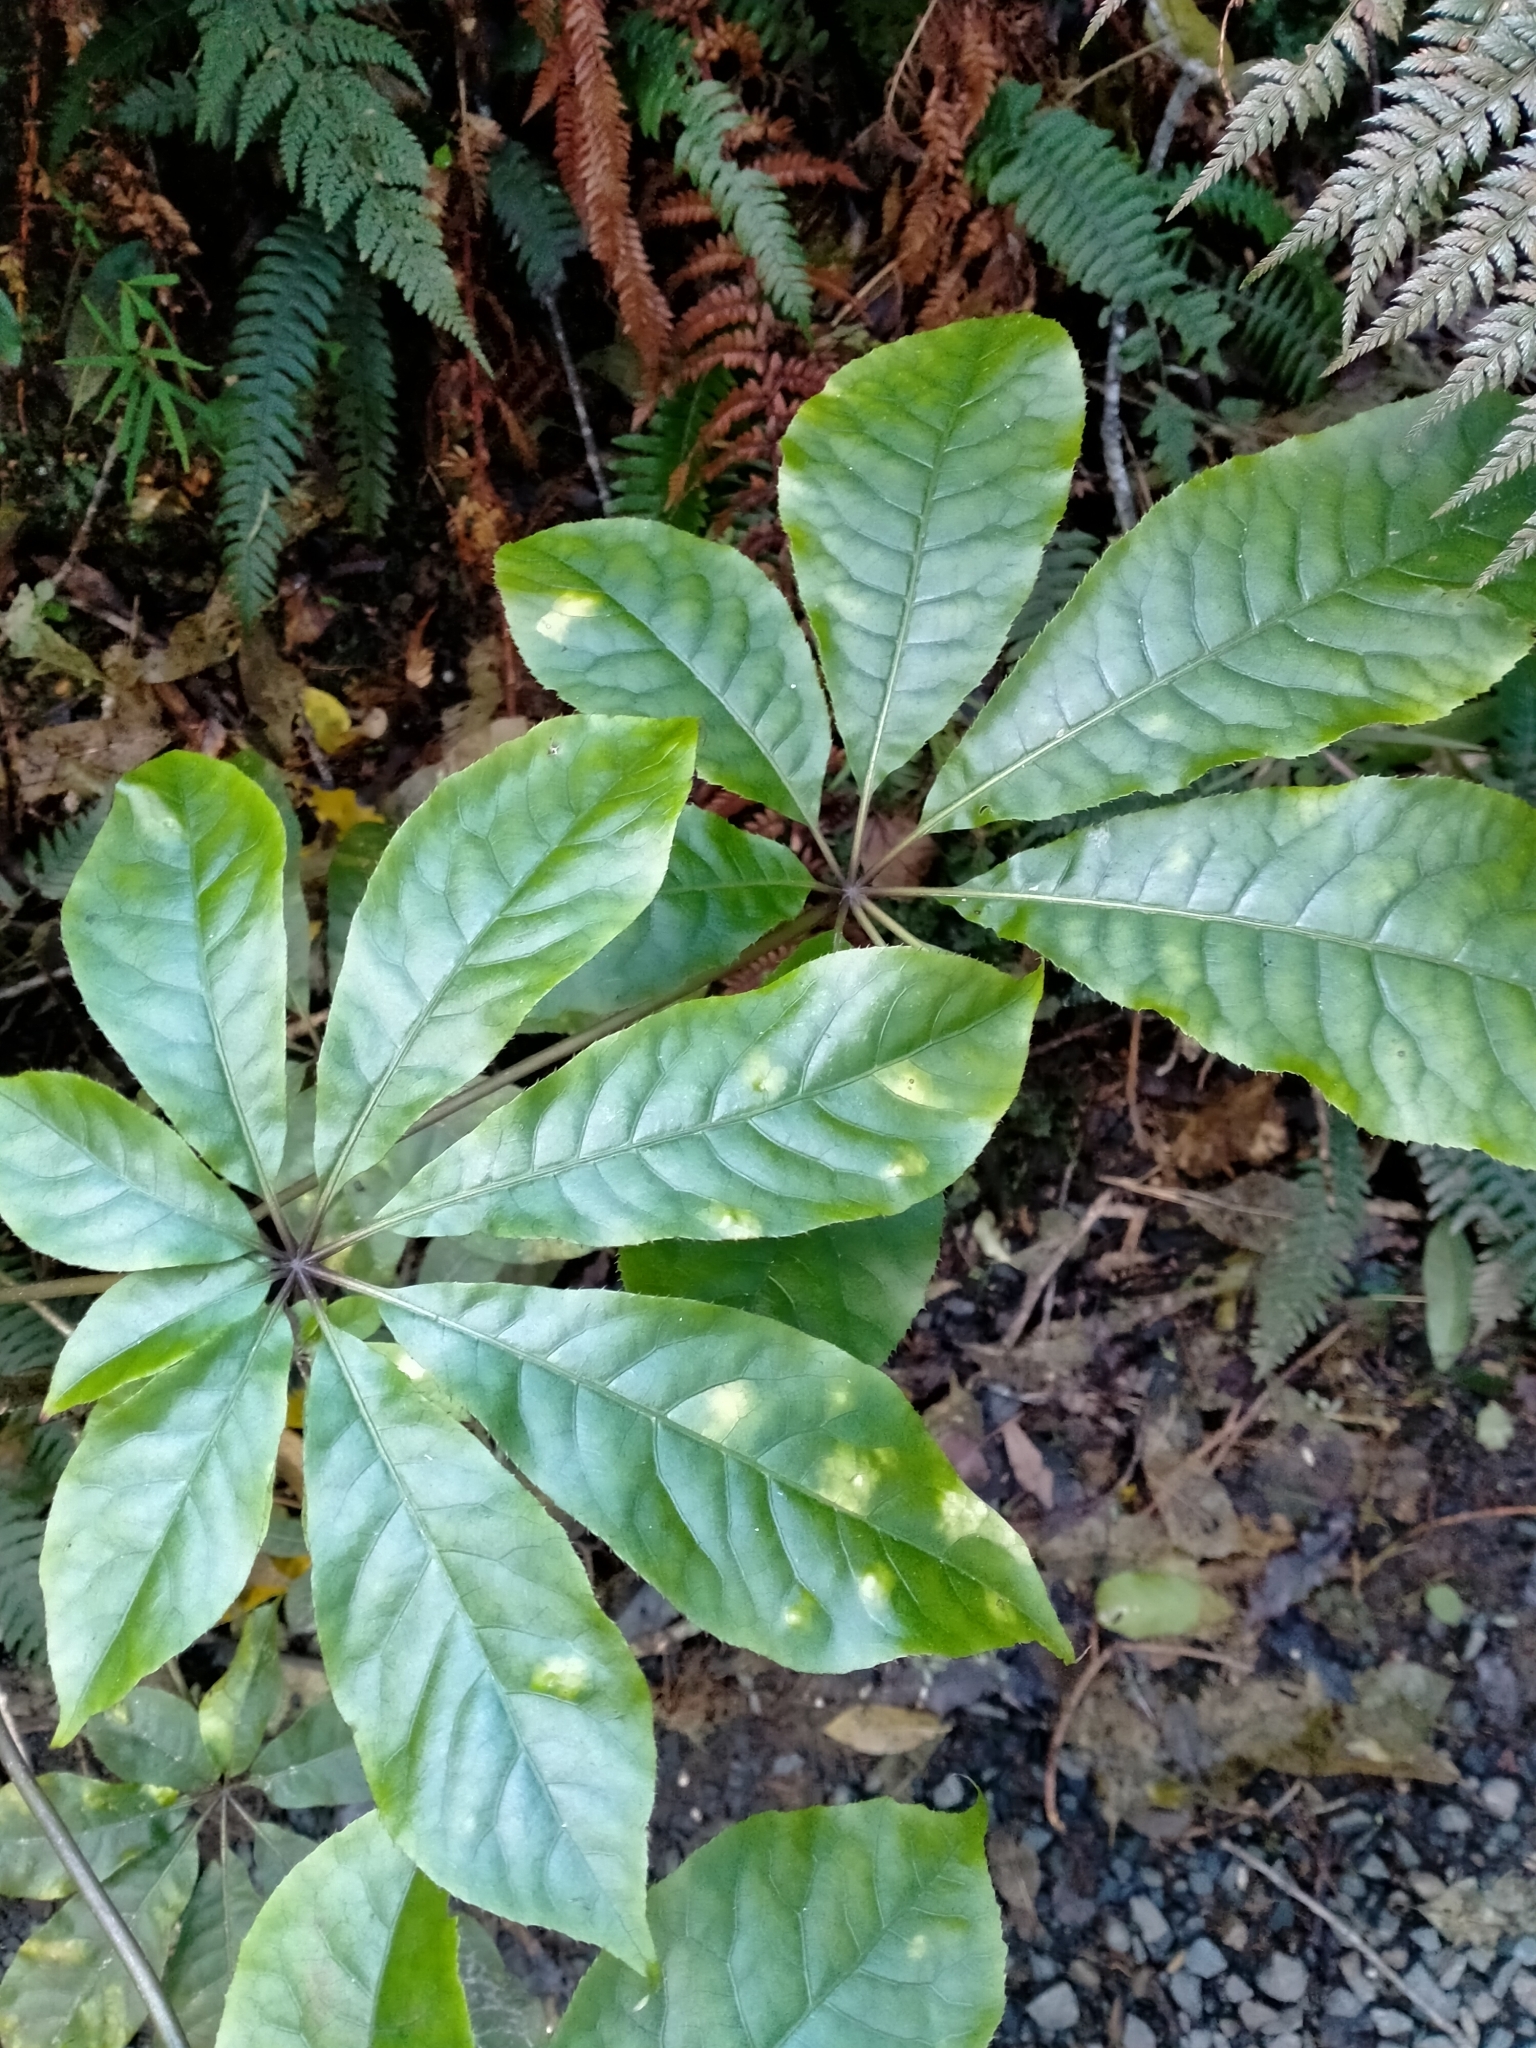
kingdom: Plantae
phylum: Tracheophyta
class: Magnoliopsida
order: Apiales
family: Araliaceae
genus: Schefflera
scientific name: Schefflera digitata
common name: Pate
